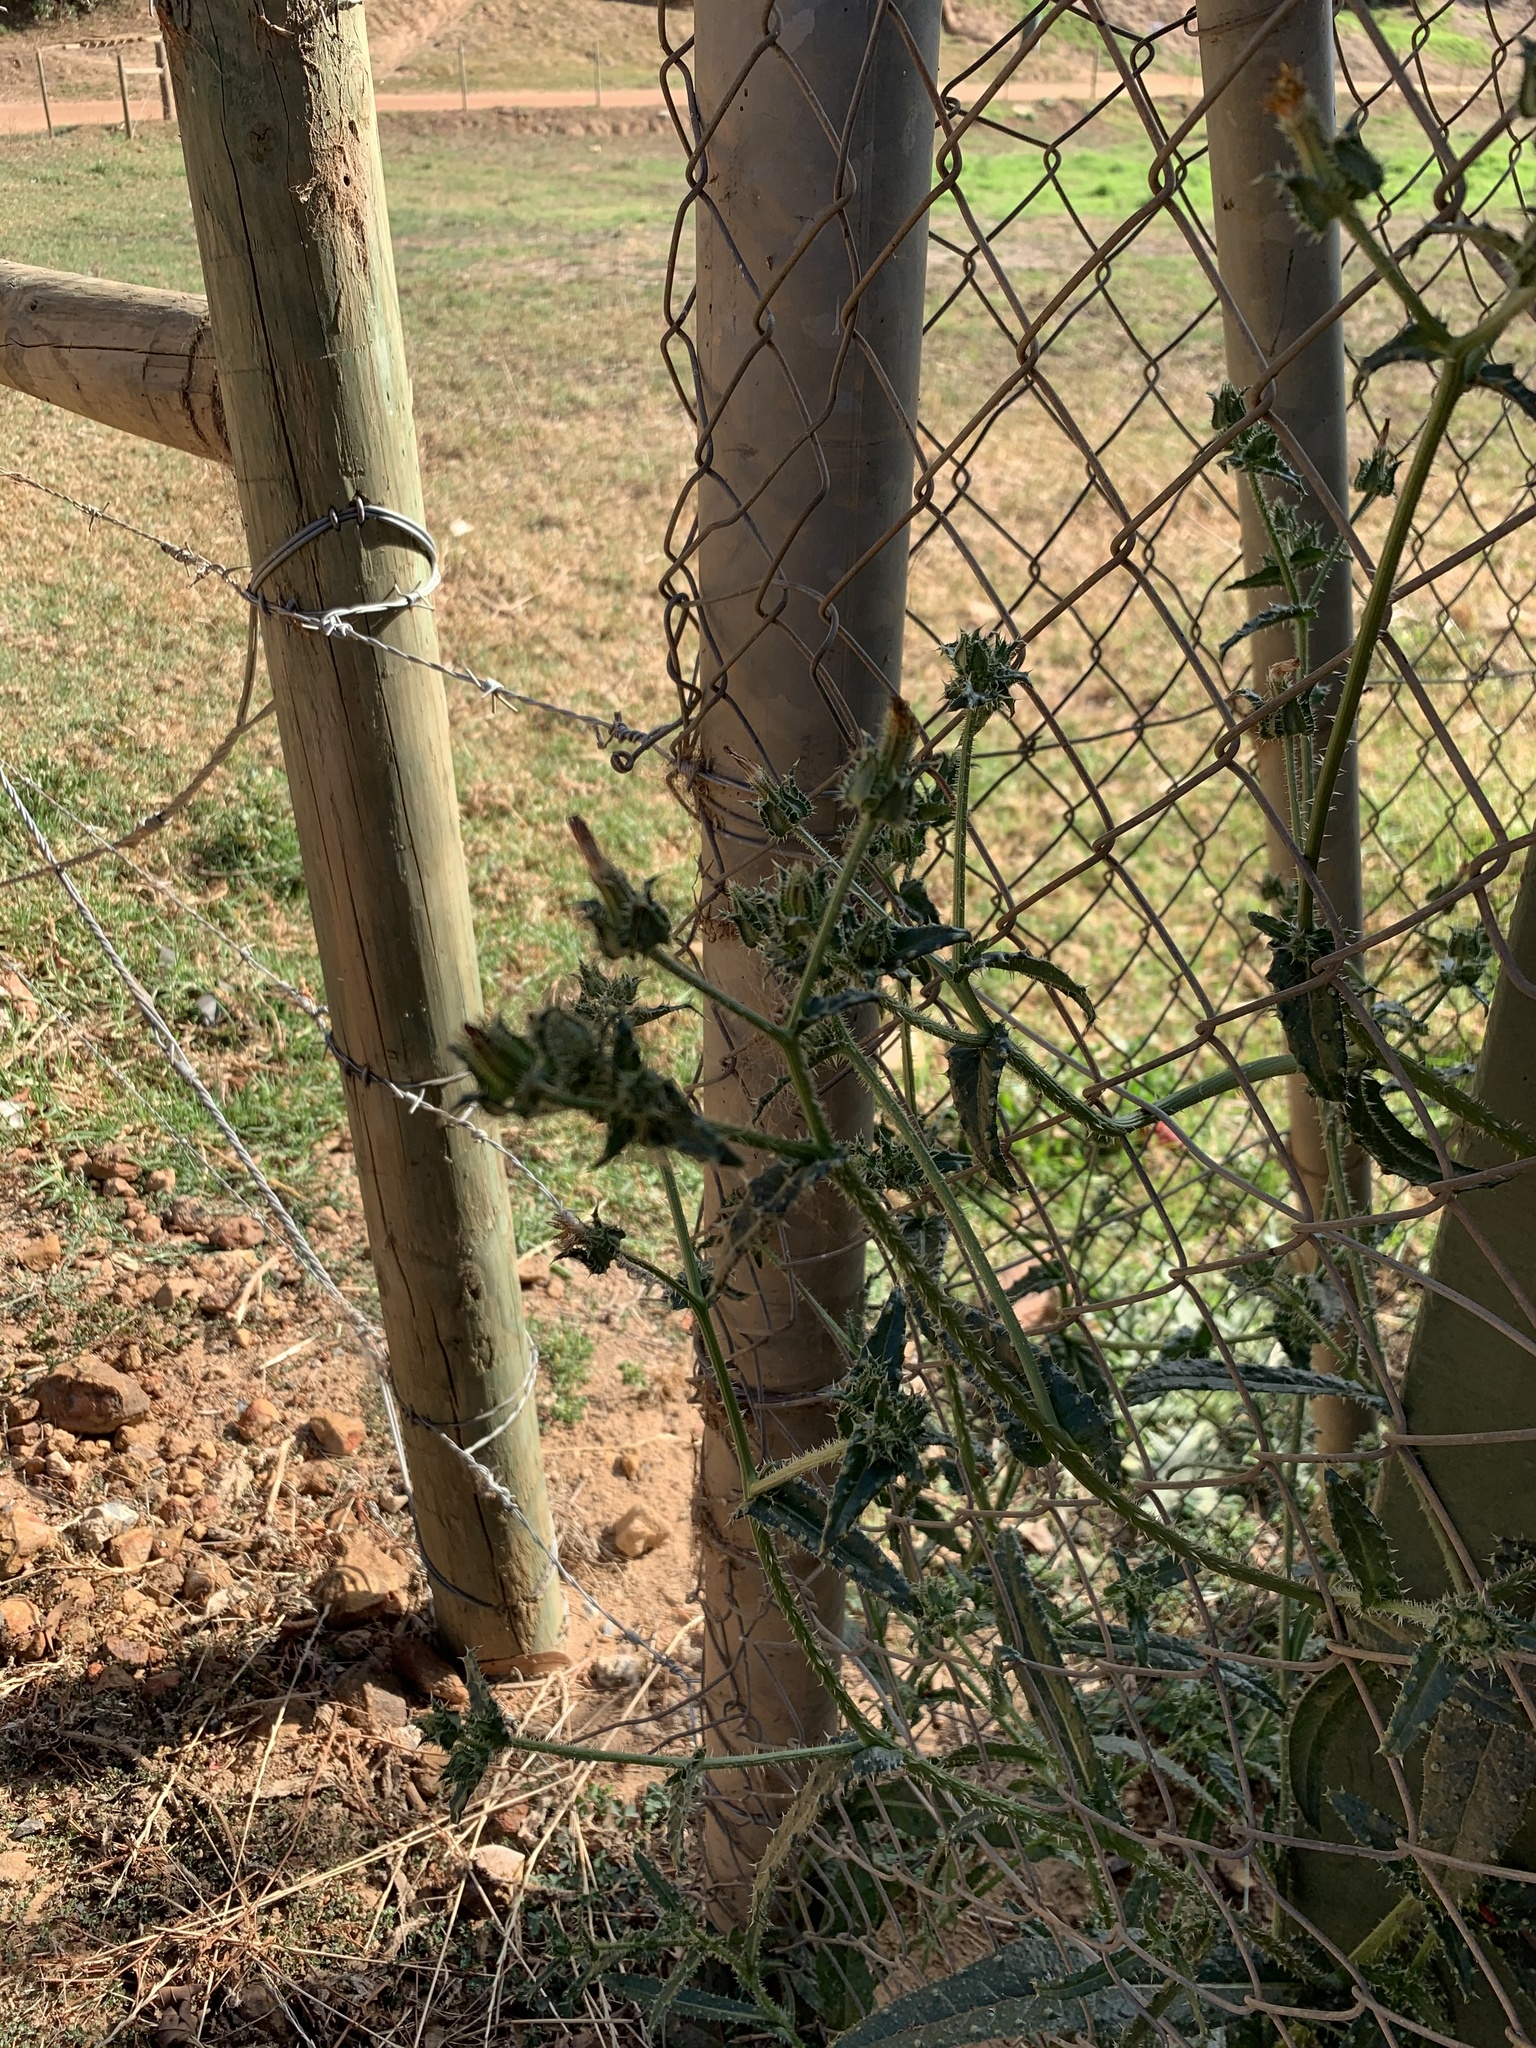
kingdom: Plantae
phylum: Tracheophyta
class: Magnoliopsida
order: Asterales
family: Asteraceae
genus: Helminthotheca
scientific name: Helminthotheca echioides
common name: Ox-tongue
